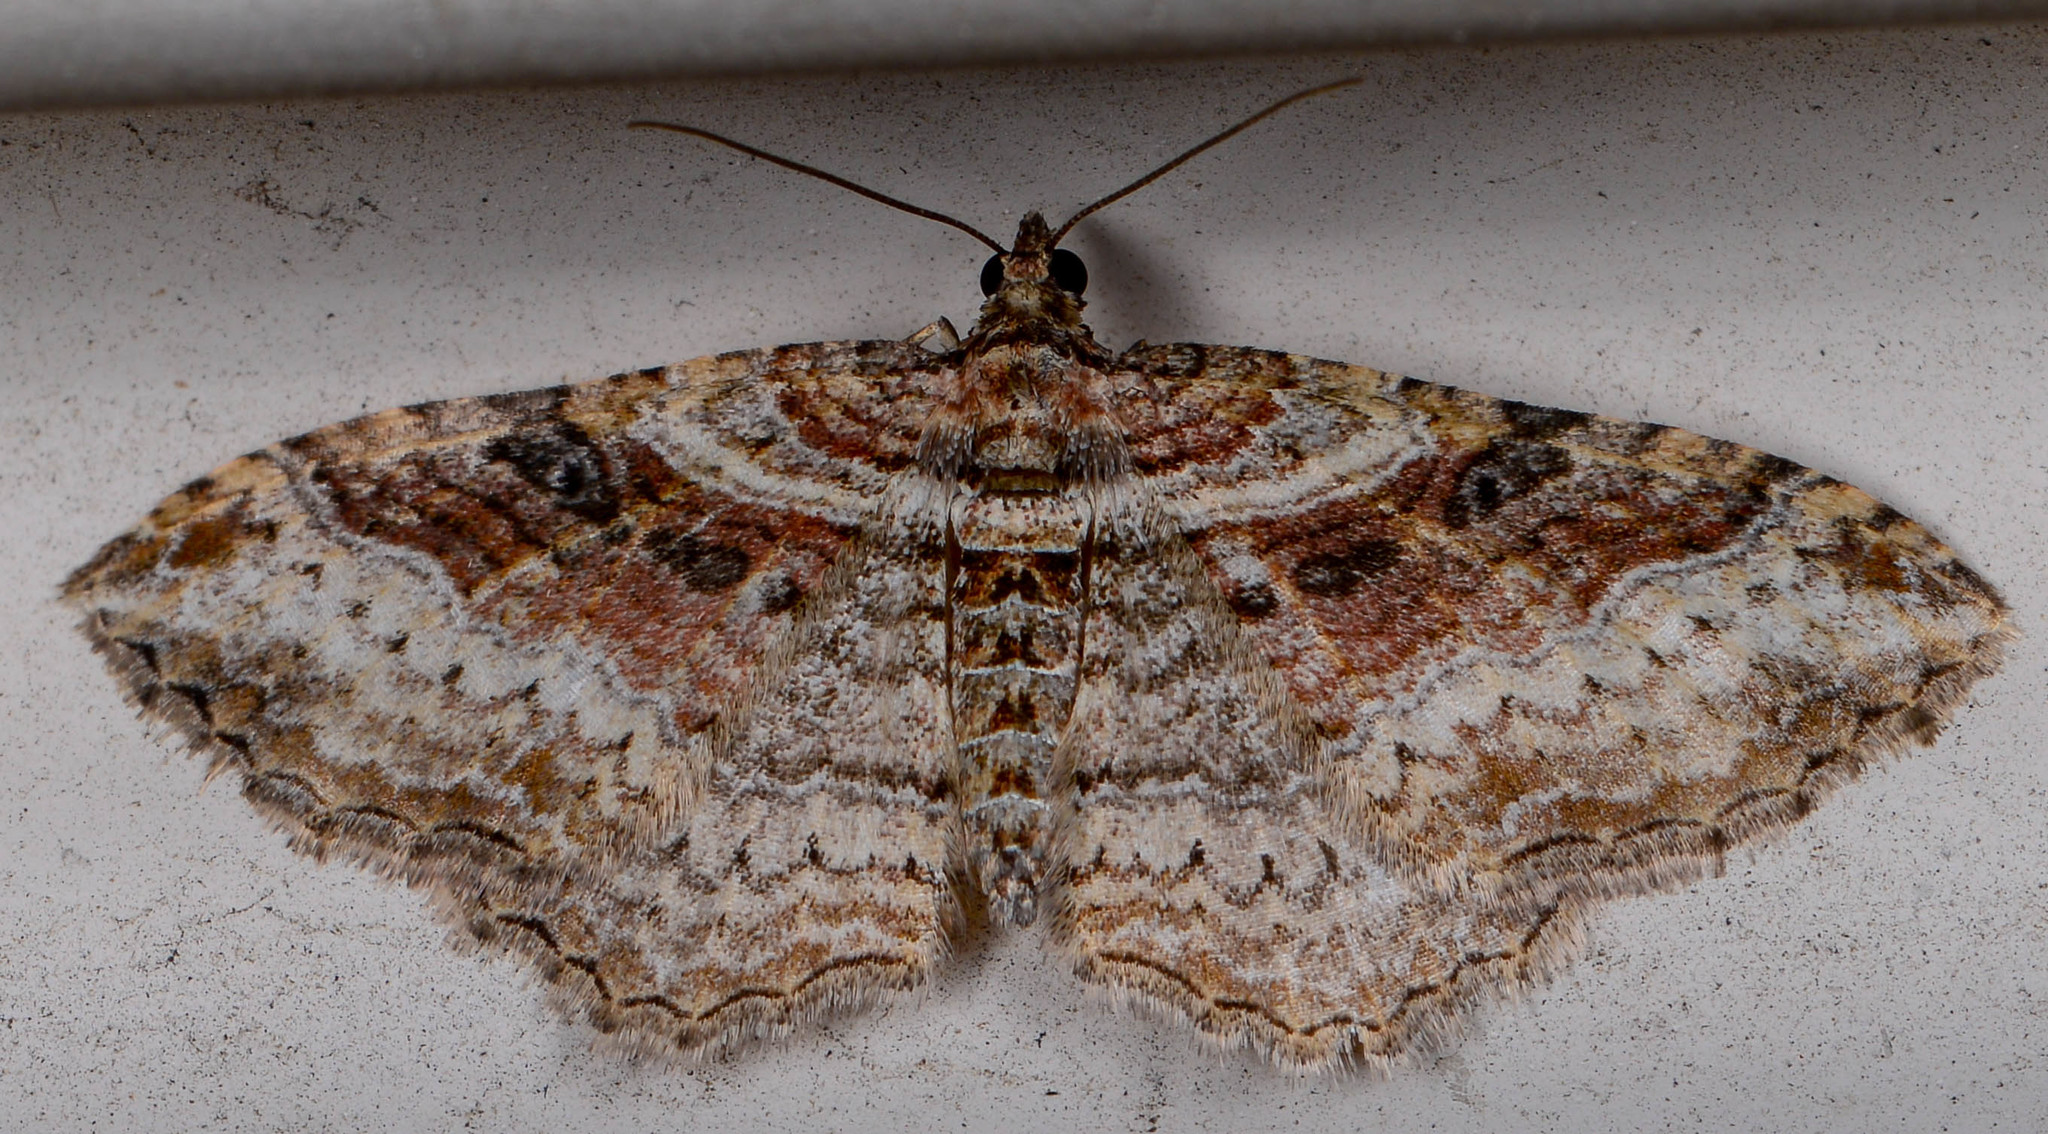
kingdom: Animalia
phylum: Arthropoda
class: Insecta
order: Lepidoptera
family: Geometridae
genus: Costaconvexa
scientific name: Costaconvexa centrostrigaria
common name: Bent-line carpet
